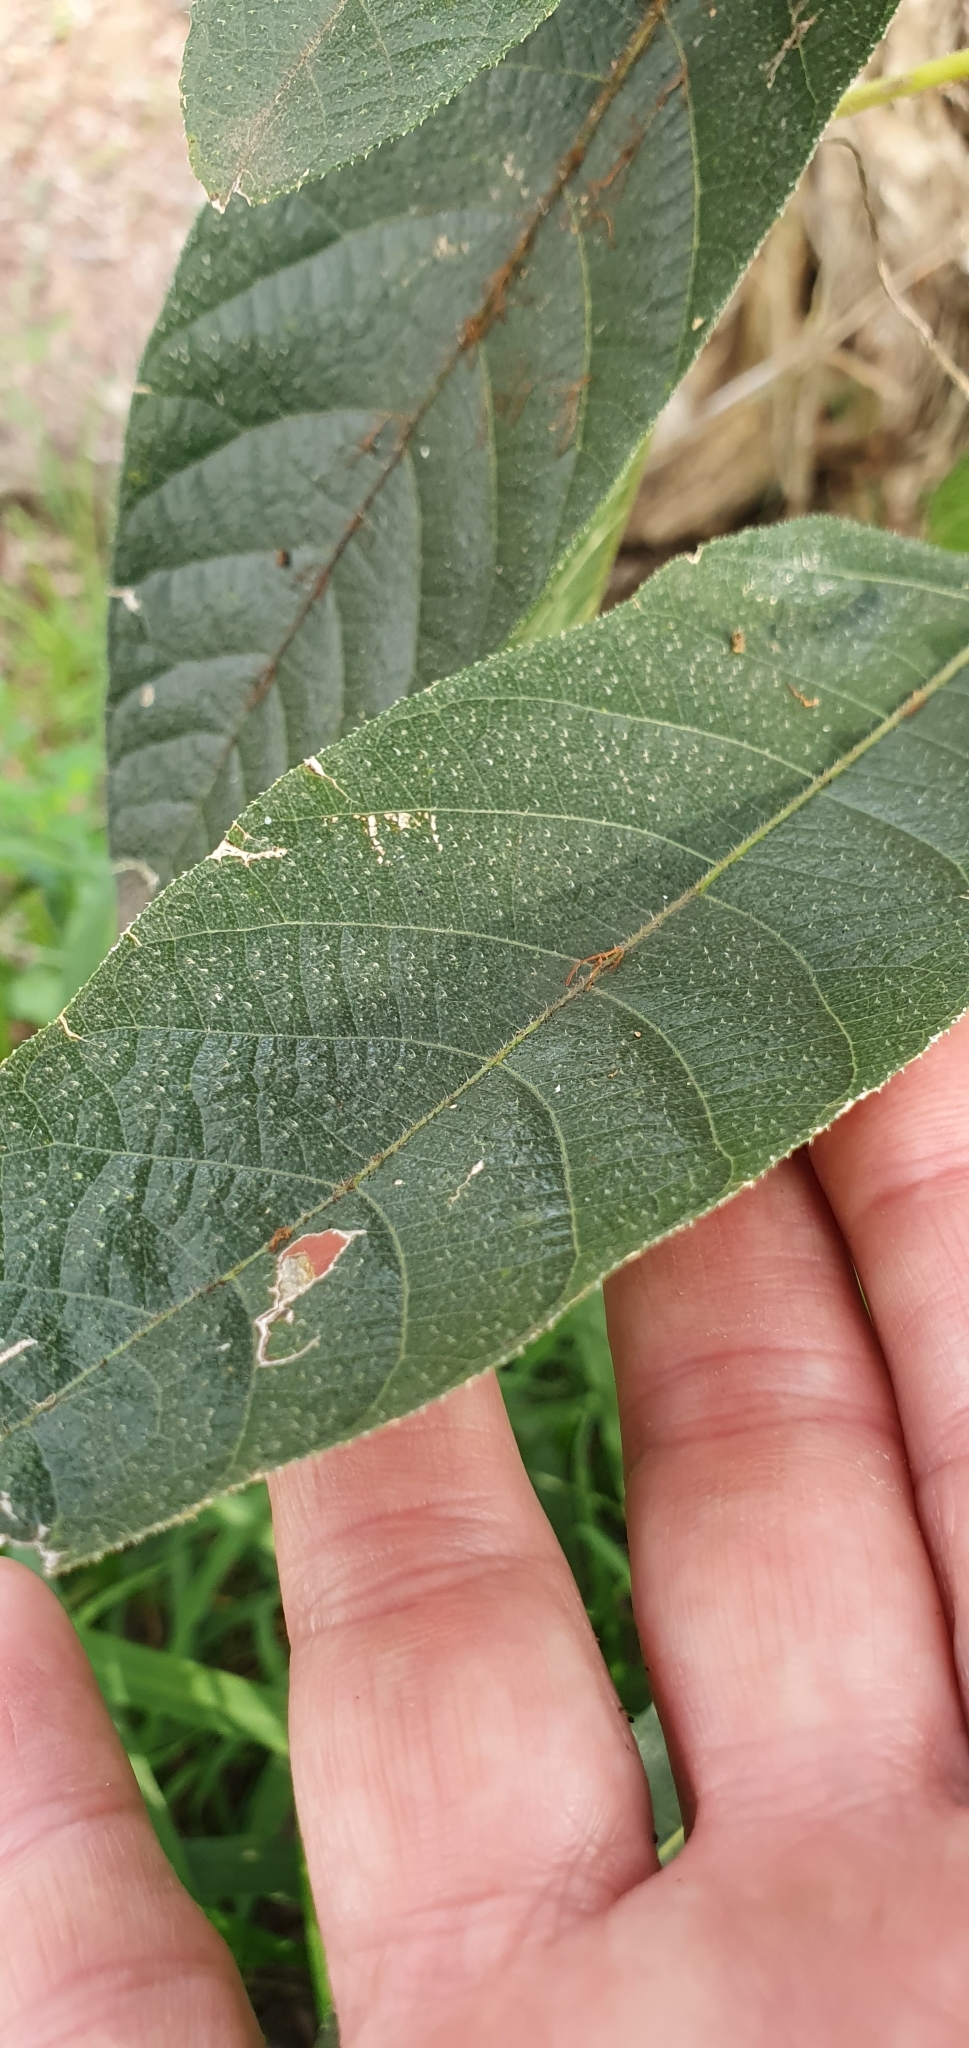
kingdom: Plantae
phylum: Tracheophyta
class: Magnoliopsida
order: Rosales
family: Moraceae
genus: Ficus
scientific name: Ficus opposita
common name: Figwood
